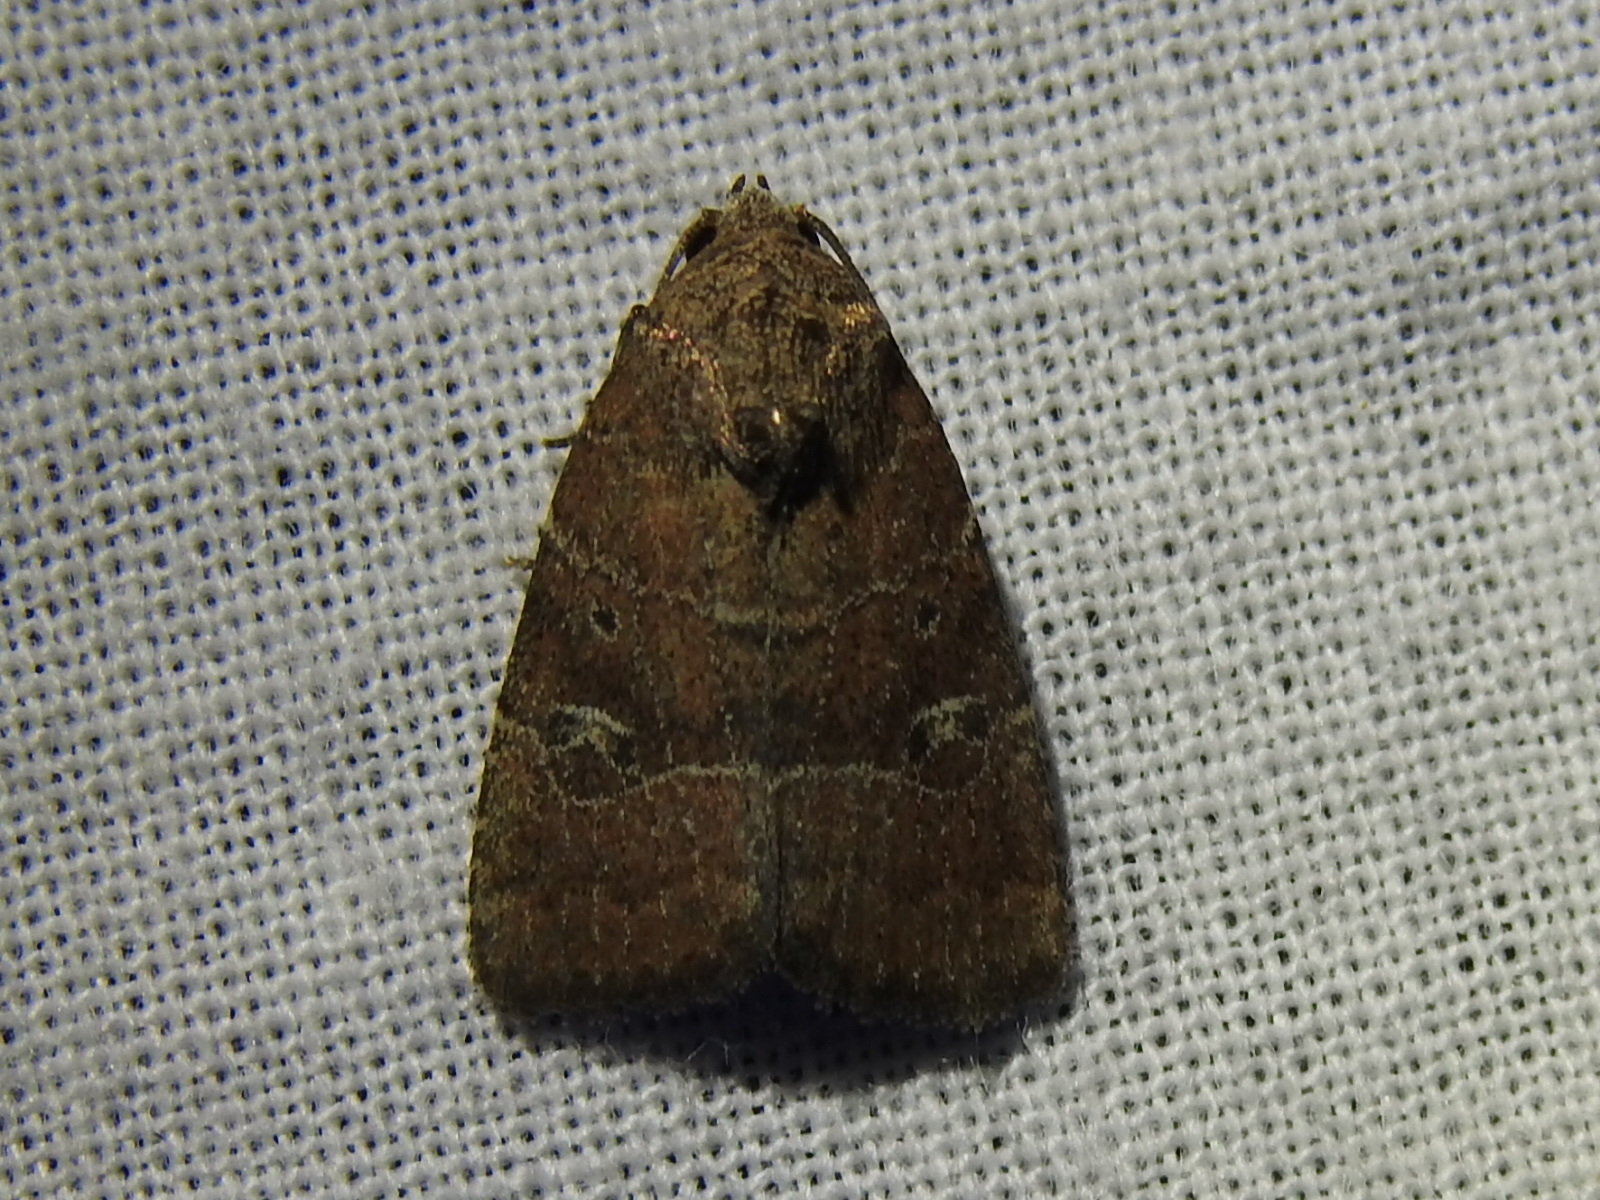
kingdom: Animalia
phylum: Arthropoda
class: Insecta
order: Lepidoptera
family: Noctuidae
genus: Elaphria
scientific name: Elaphria grata
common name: Grateful midget moth
